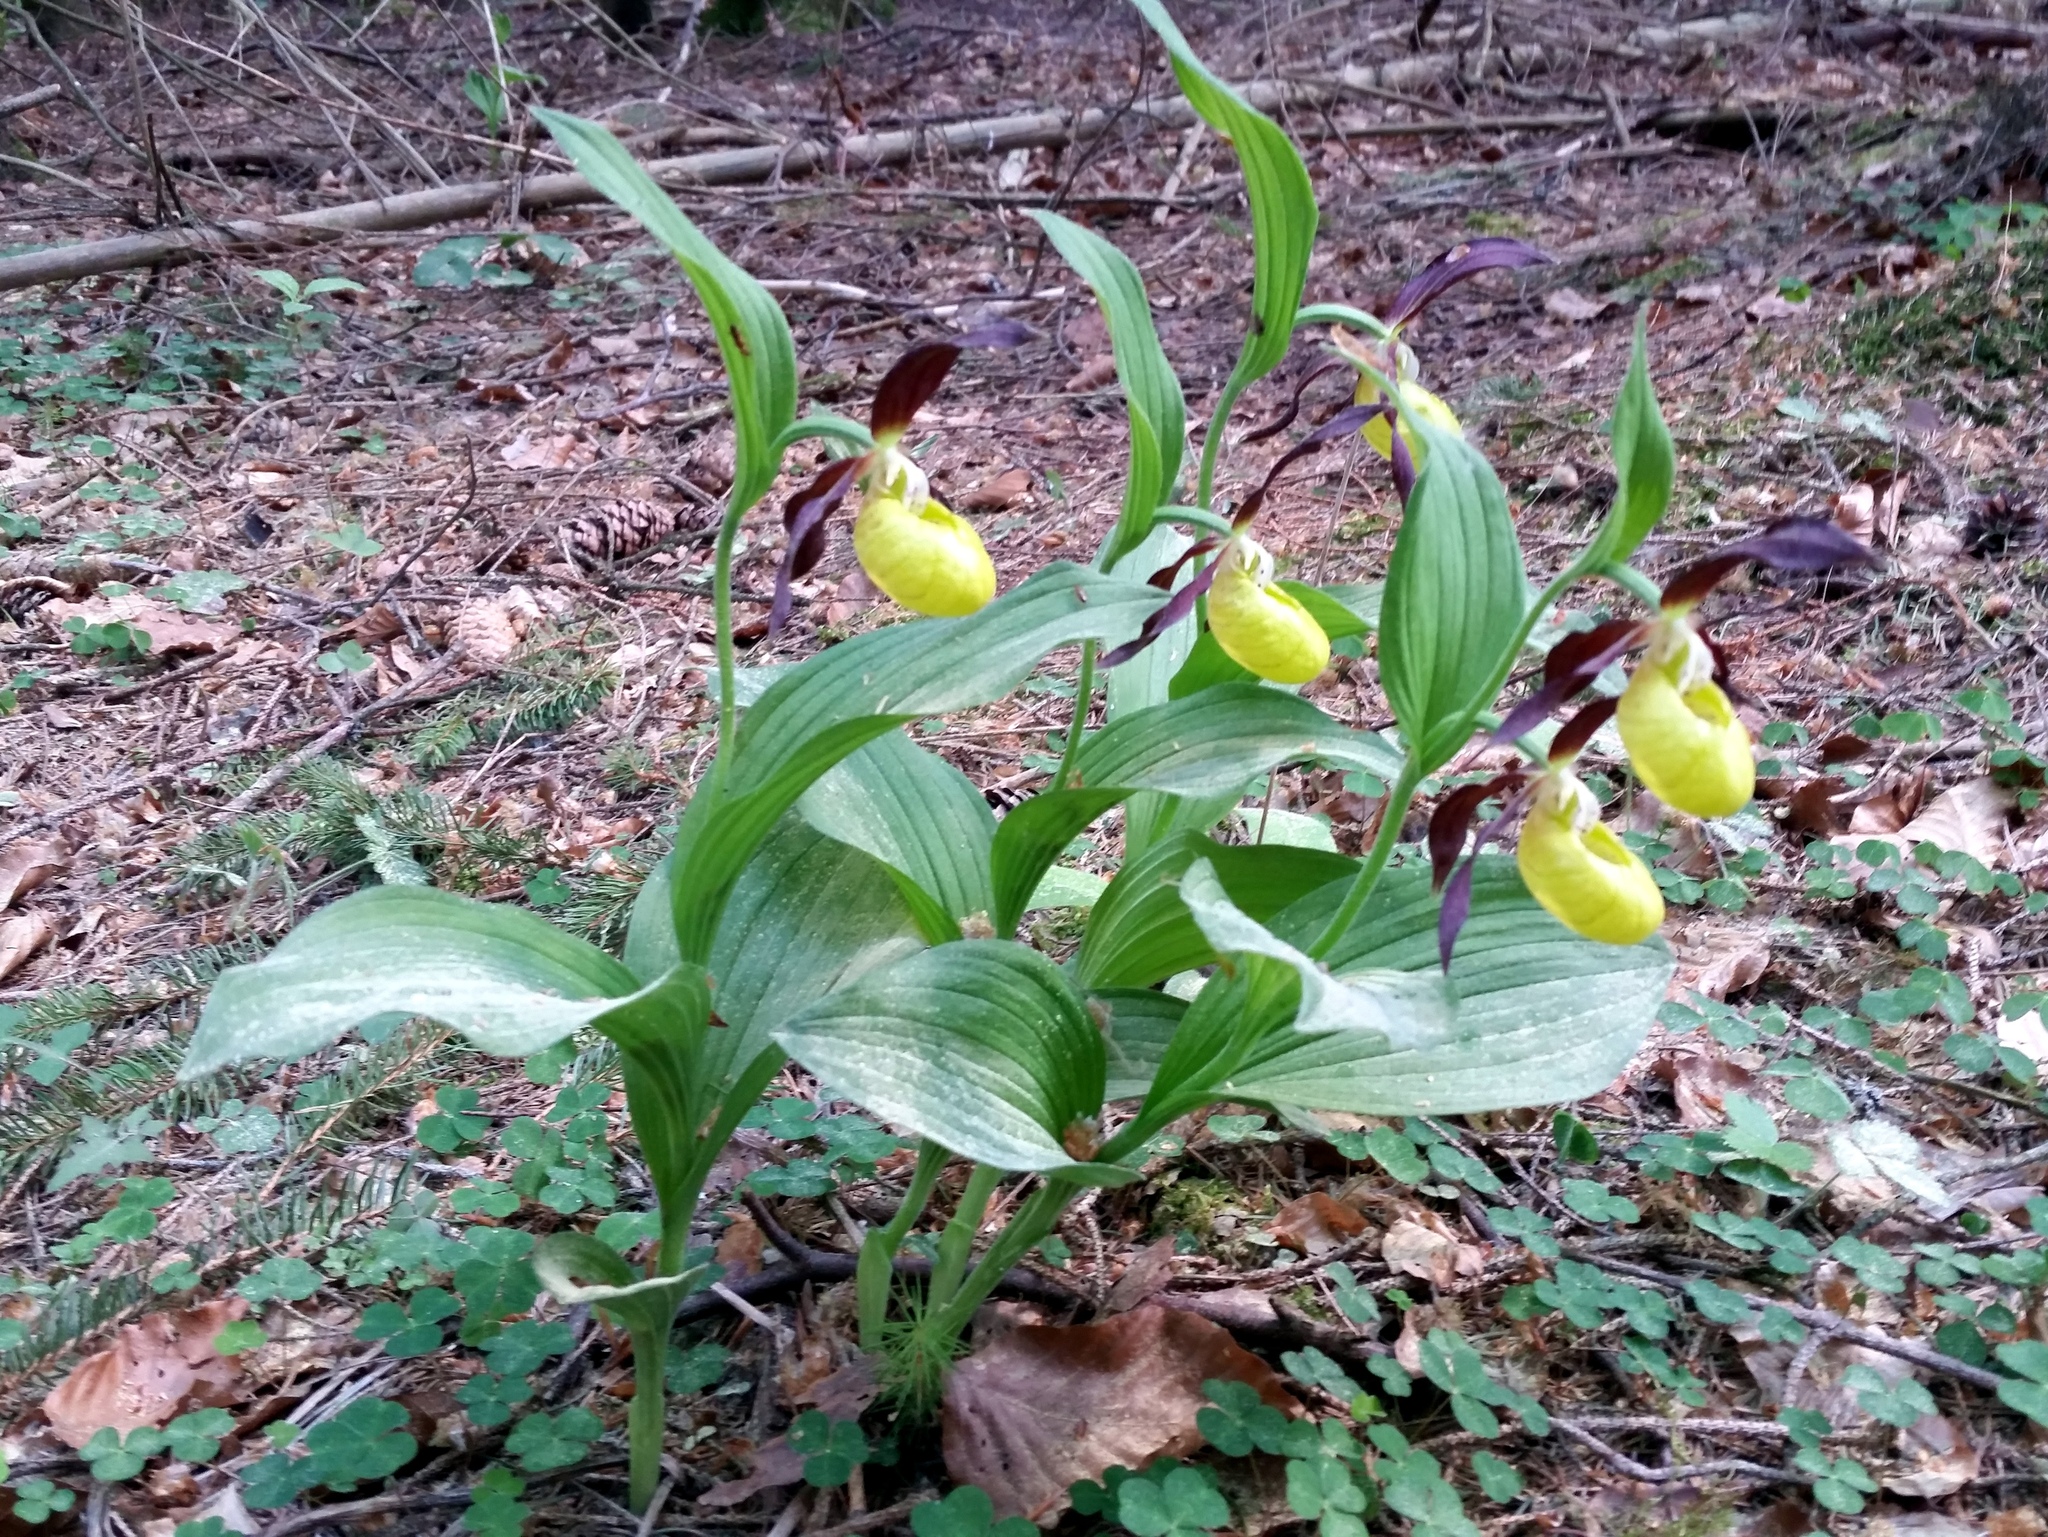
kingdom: Plantae
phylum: Tracheophyta
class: Liliopsida
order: Asparagales
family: Orchidaceae
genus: Cypripedium
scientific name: Cypripedium calceolus
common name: Lady's-slipper
